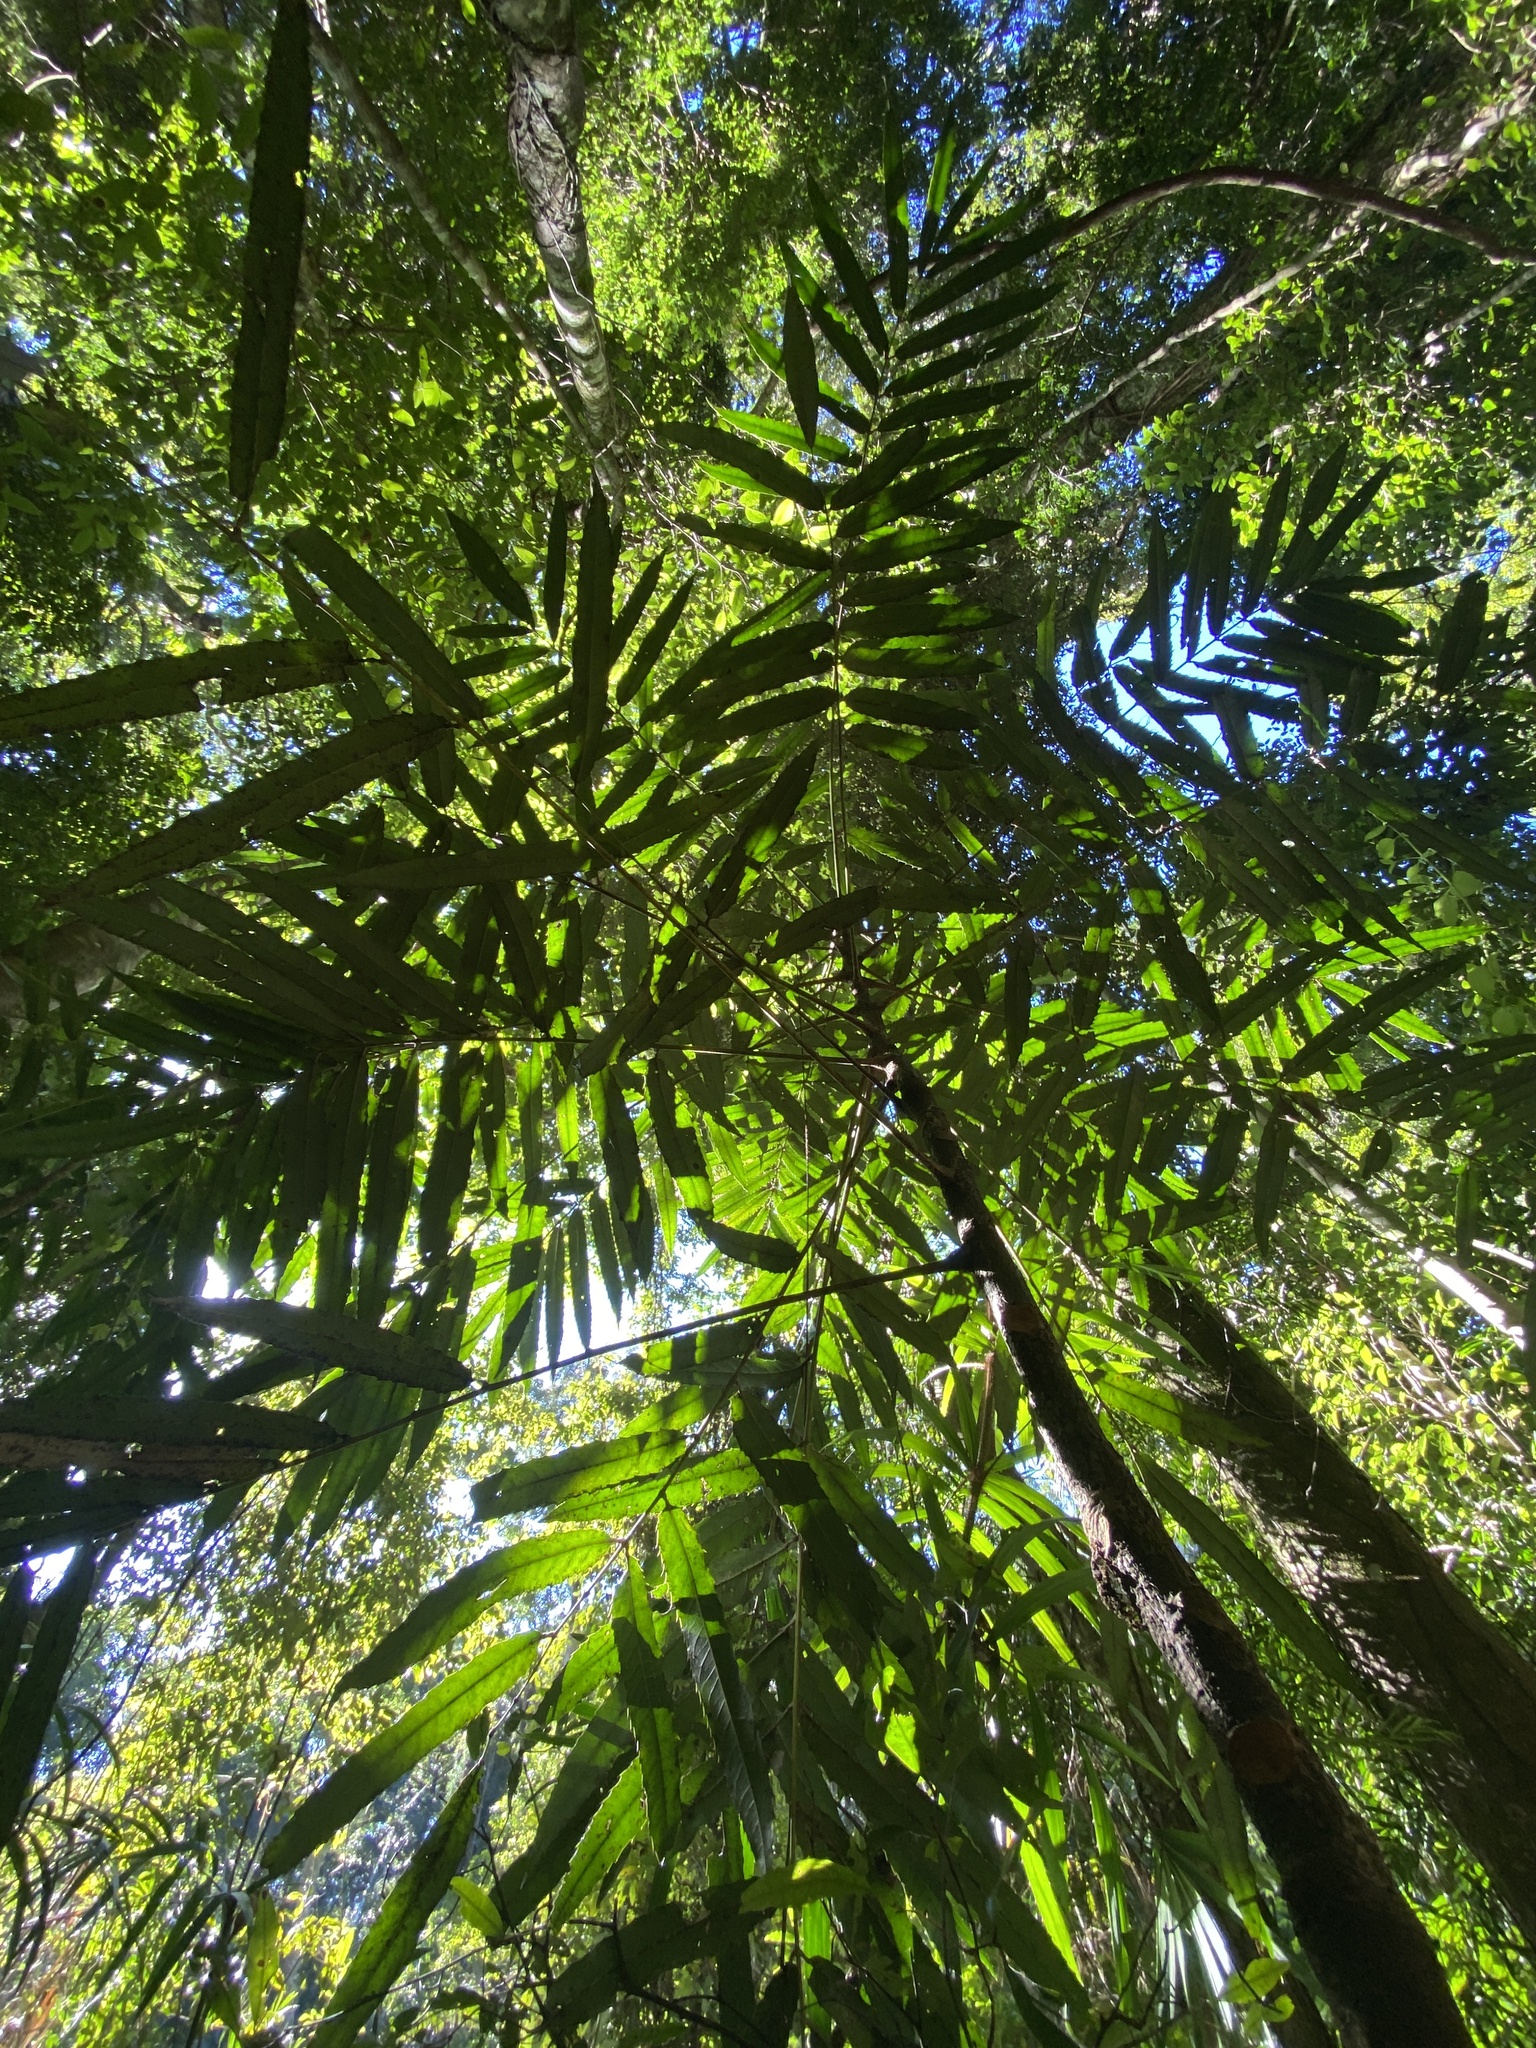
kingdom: Plantae
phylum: Tracheophyta
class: Magnoliopsida
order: Brassicales
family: Akaniaceae
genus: Akania
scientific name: Akania bidwillii
